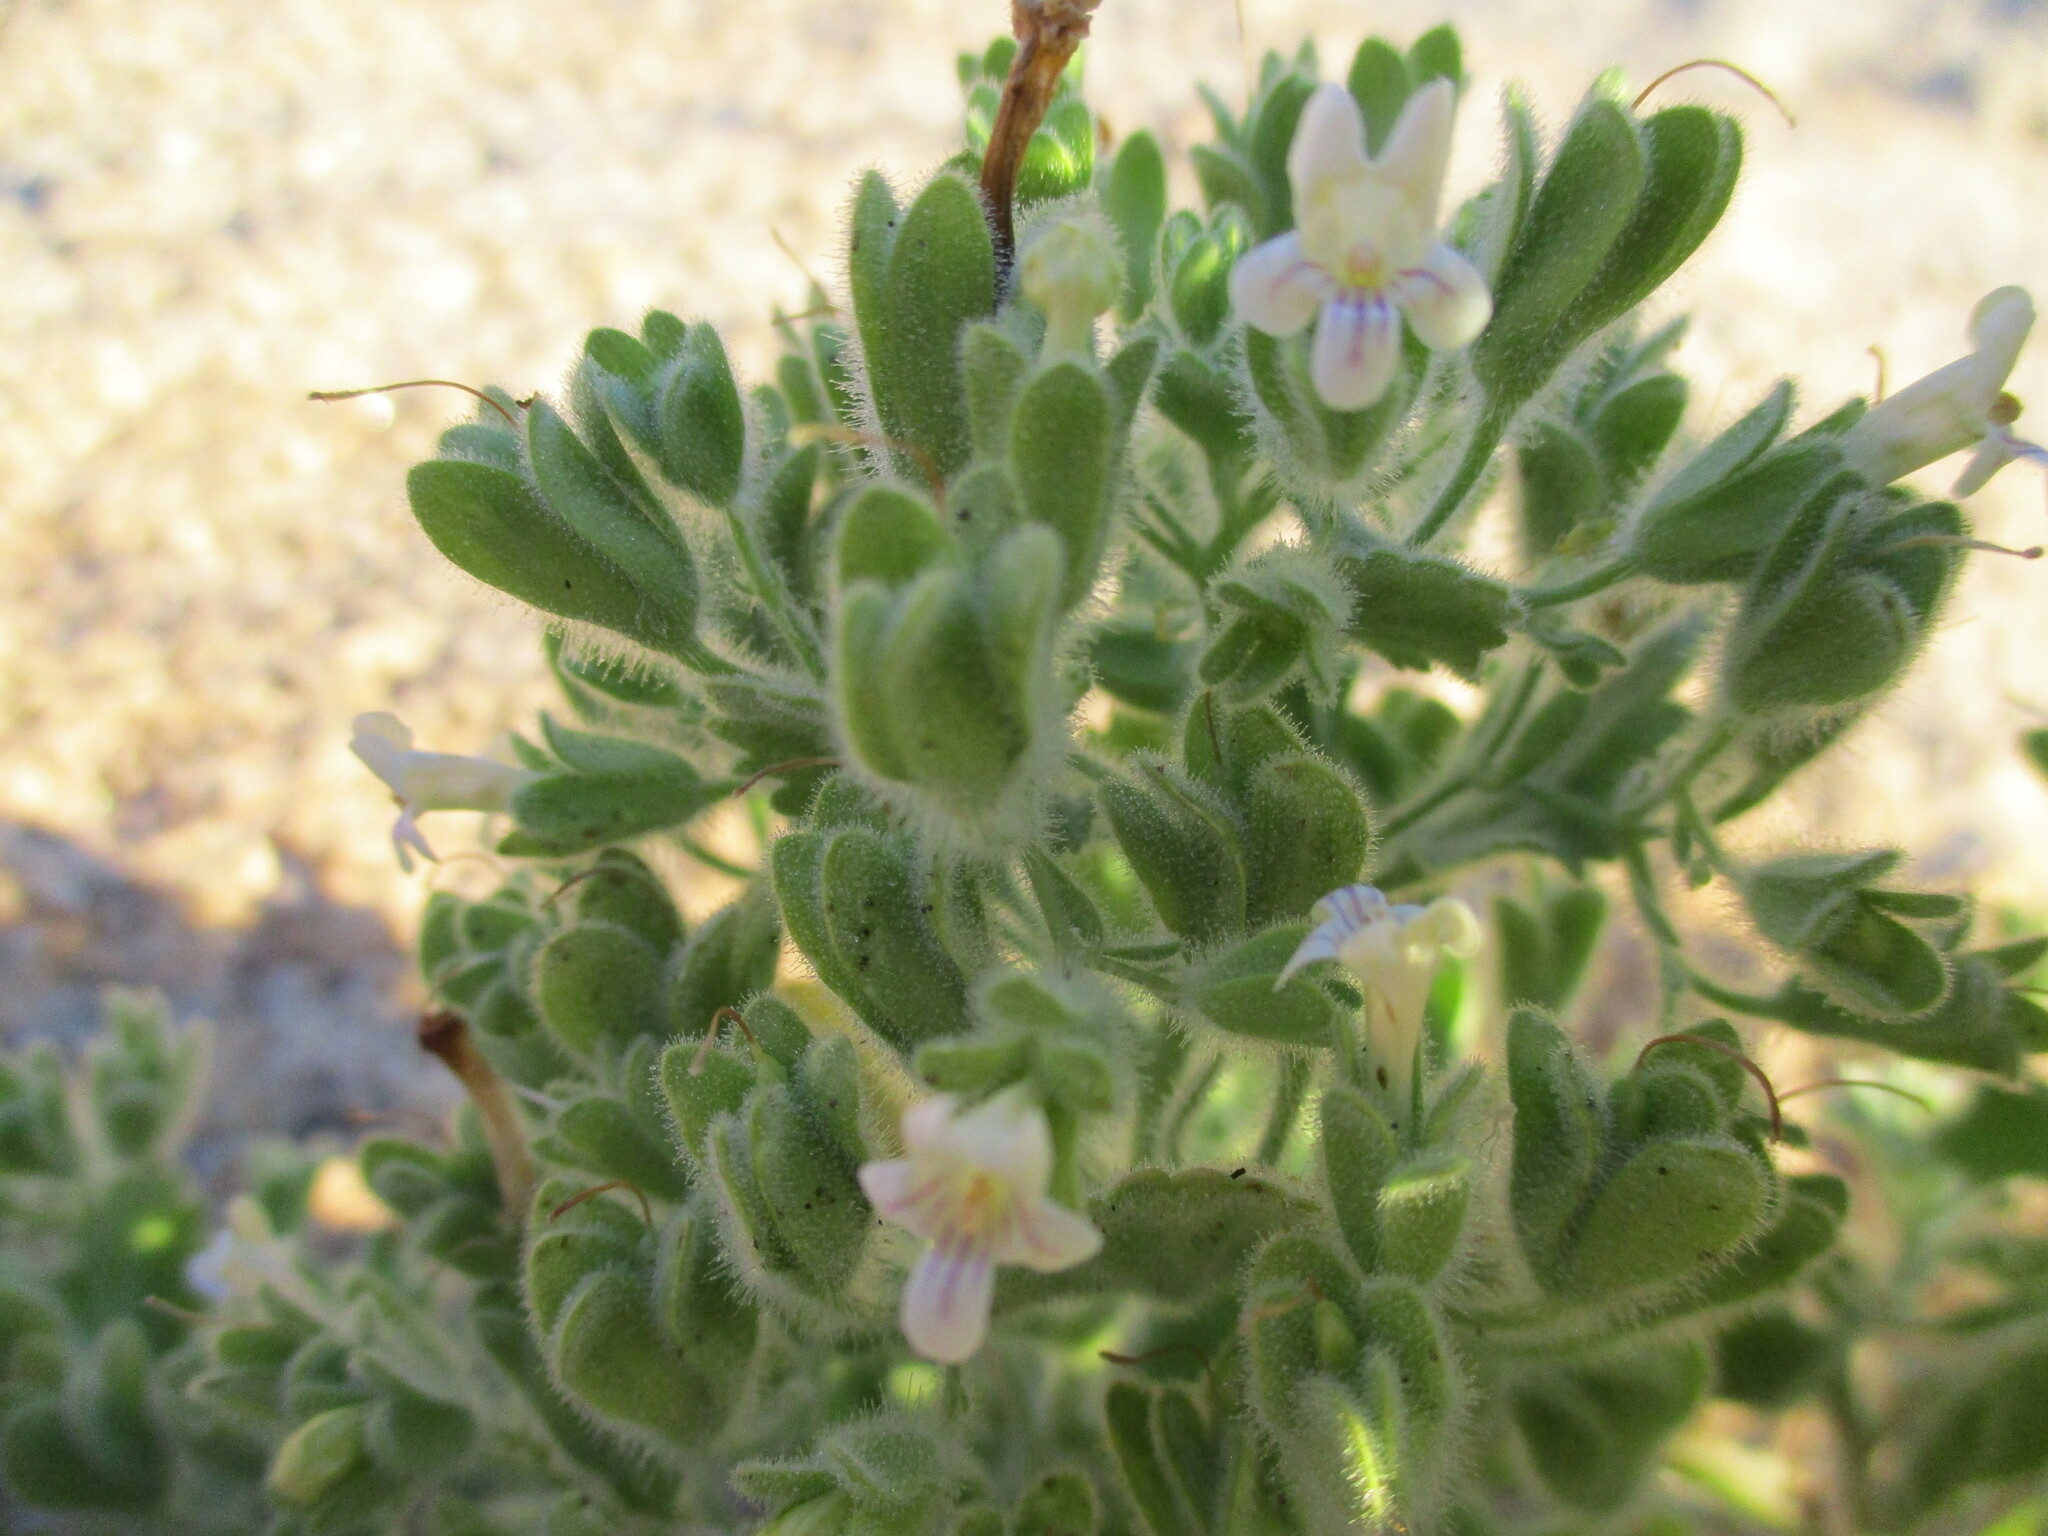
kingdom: Plantae
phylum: Tracheophyta
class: Magnoliopsida
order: Lamiales
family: Scrophulariaceae
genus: Camptoloma
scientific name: Camptoloma rotundifolium
